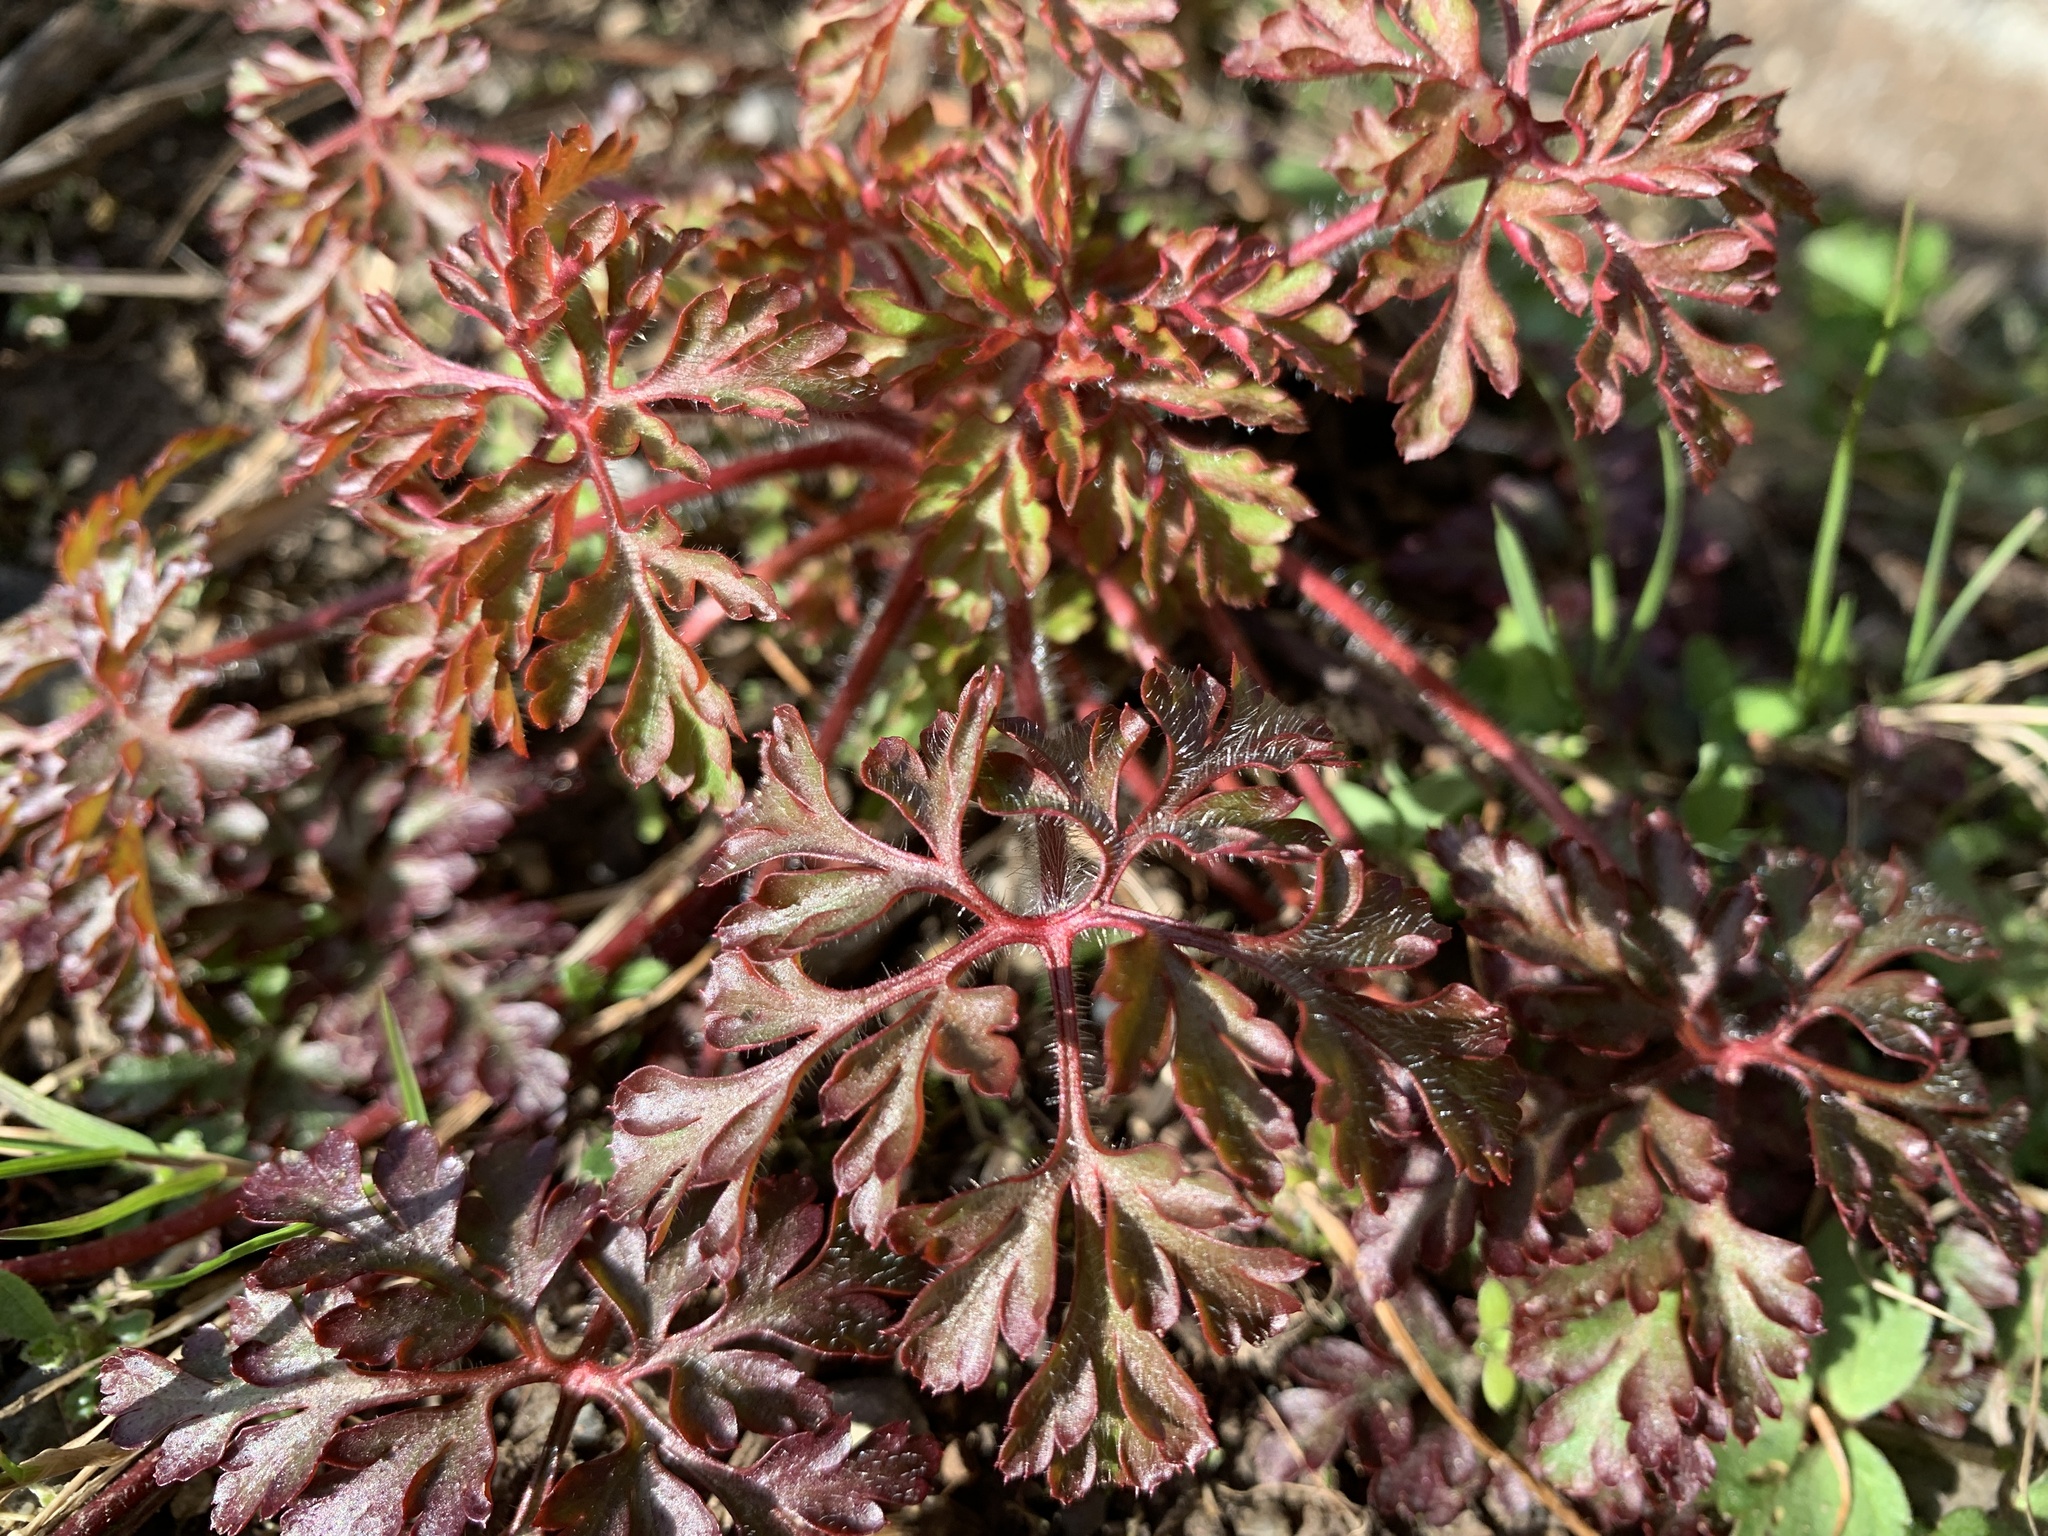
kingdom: Plantae
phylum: Tracheophyta
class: Magnoliopsida
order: Geraniales
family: Geraniaceae
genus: Geranium
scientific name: Geranium robertianum
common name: Herb-robert
